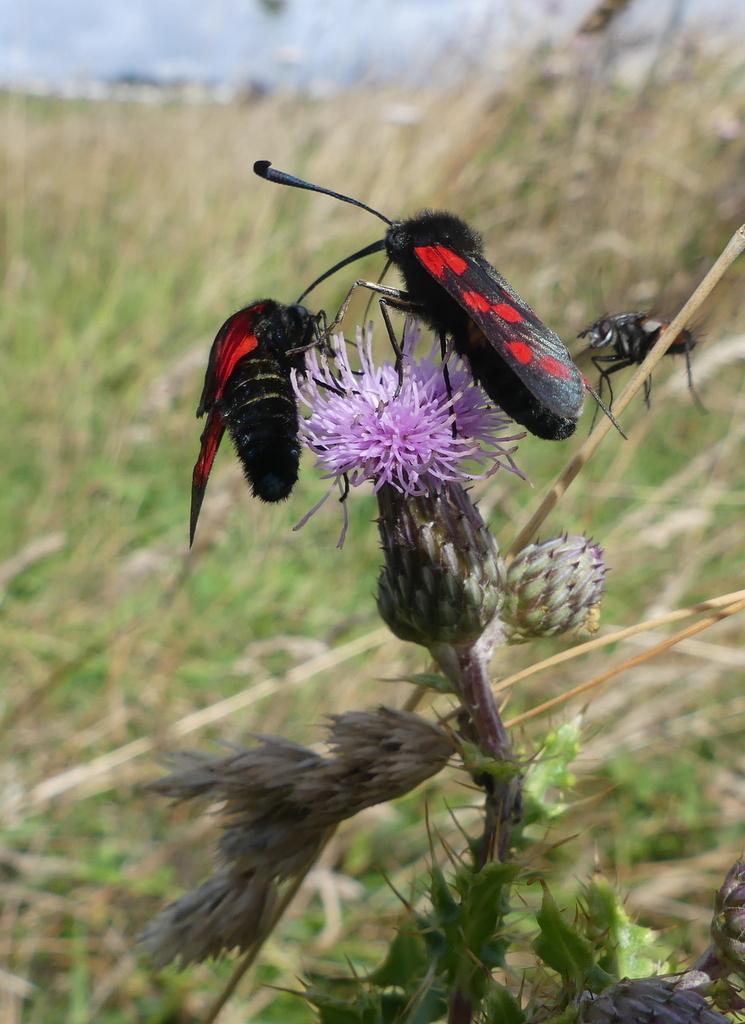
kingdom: Animalia
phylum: Arthropoda
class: Insecta
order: Lepidoptera
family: Zygaenidae
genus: Zygaena
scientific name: Zygaena filipendulae
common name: Six-spot burnet
